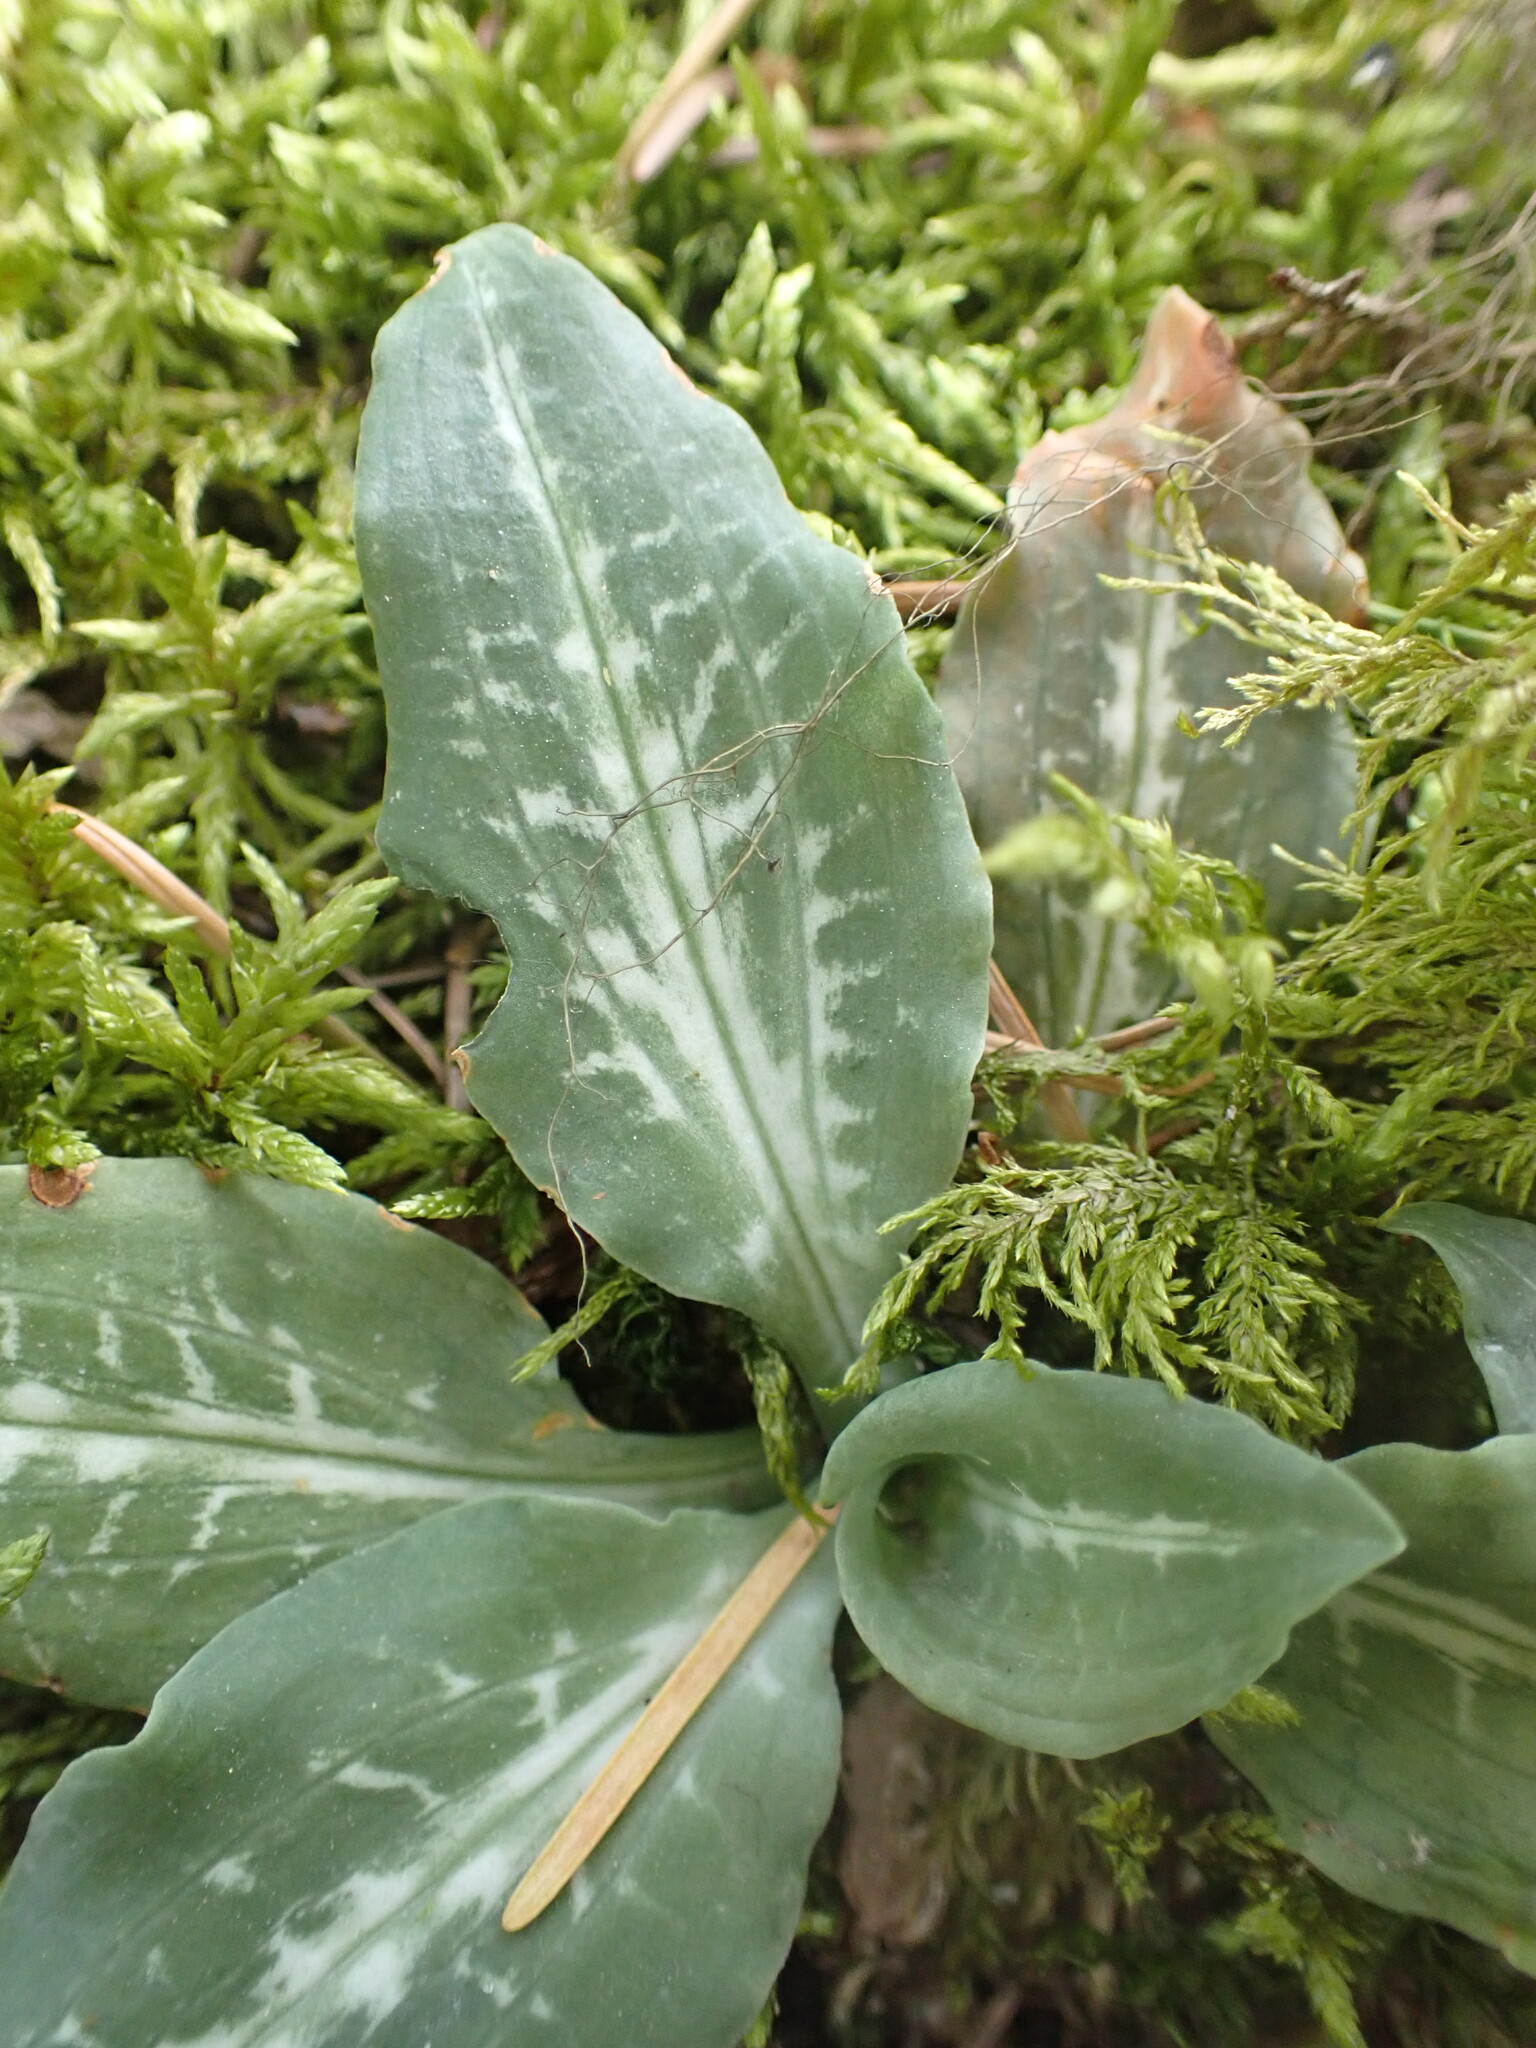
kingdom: Plantae
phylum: Tracheophyta
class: Liliopsida
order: Asparagales
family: Orchidaceae
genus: Goodyera
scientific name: Goodyera oblongifolia
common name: Giant rattlesnake-plantain
